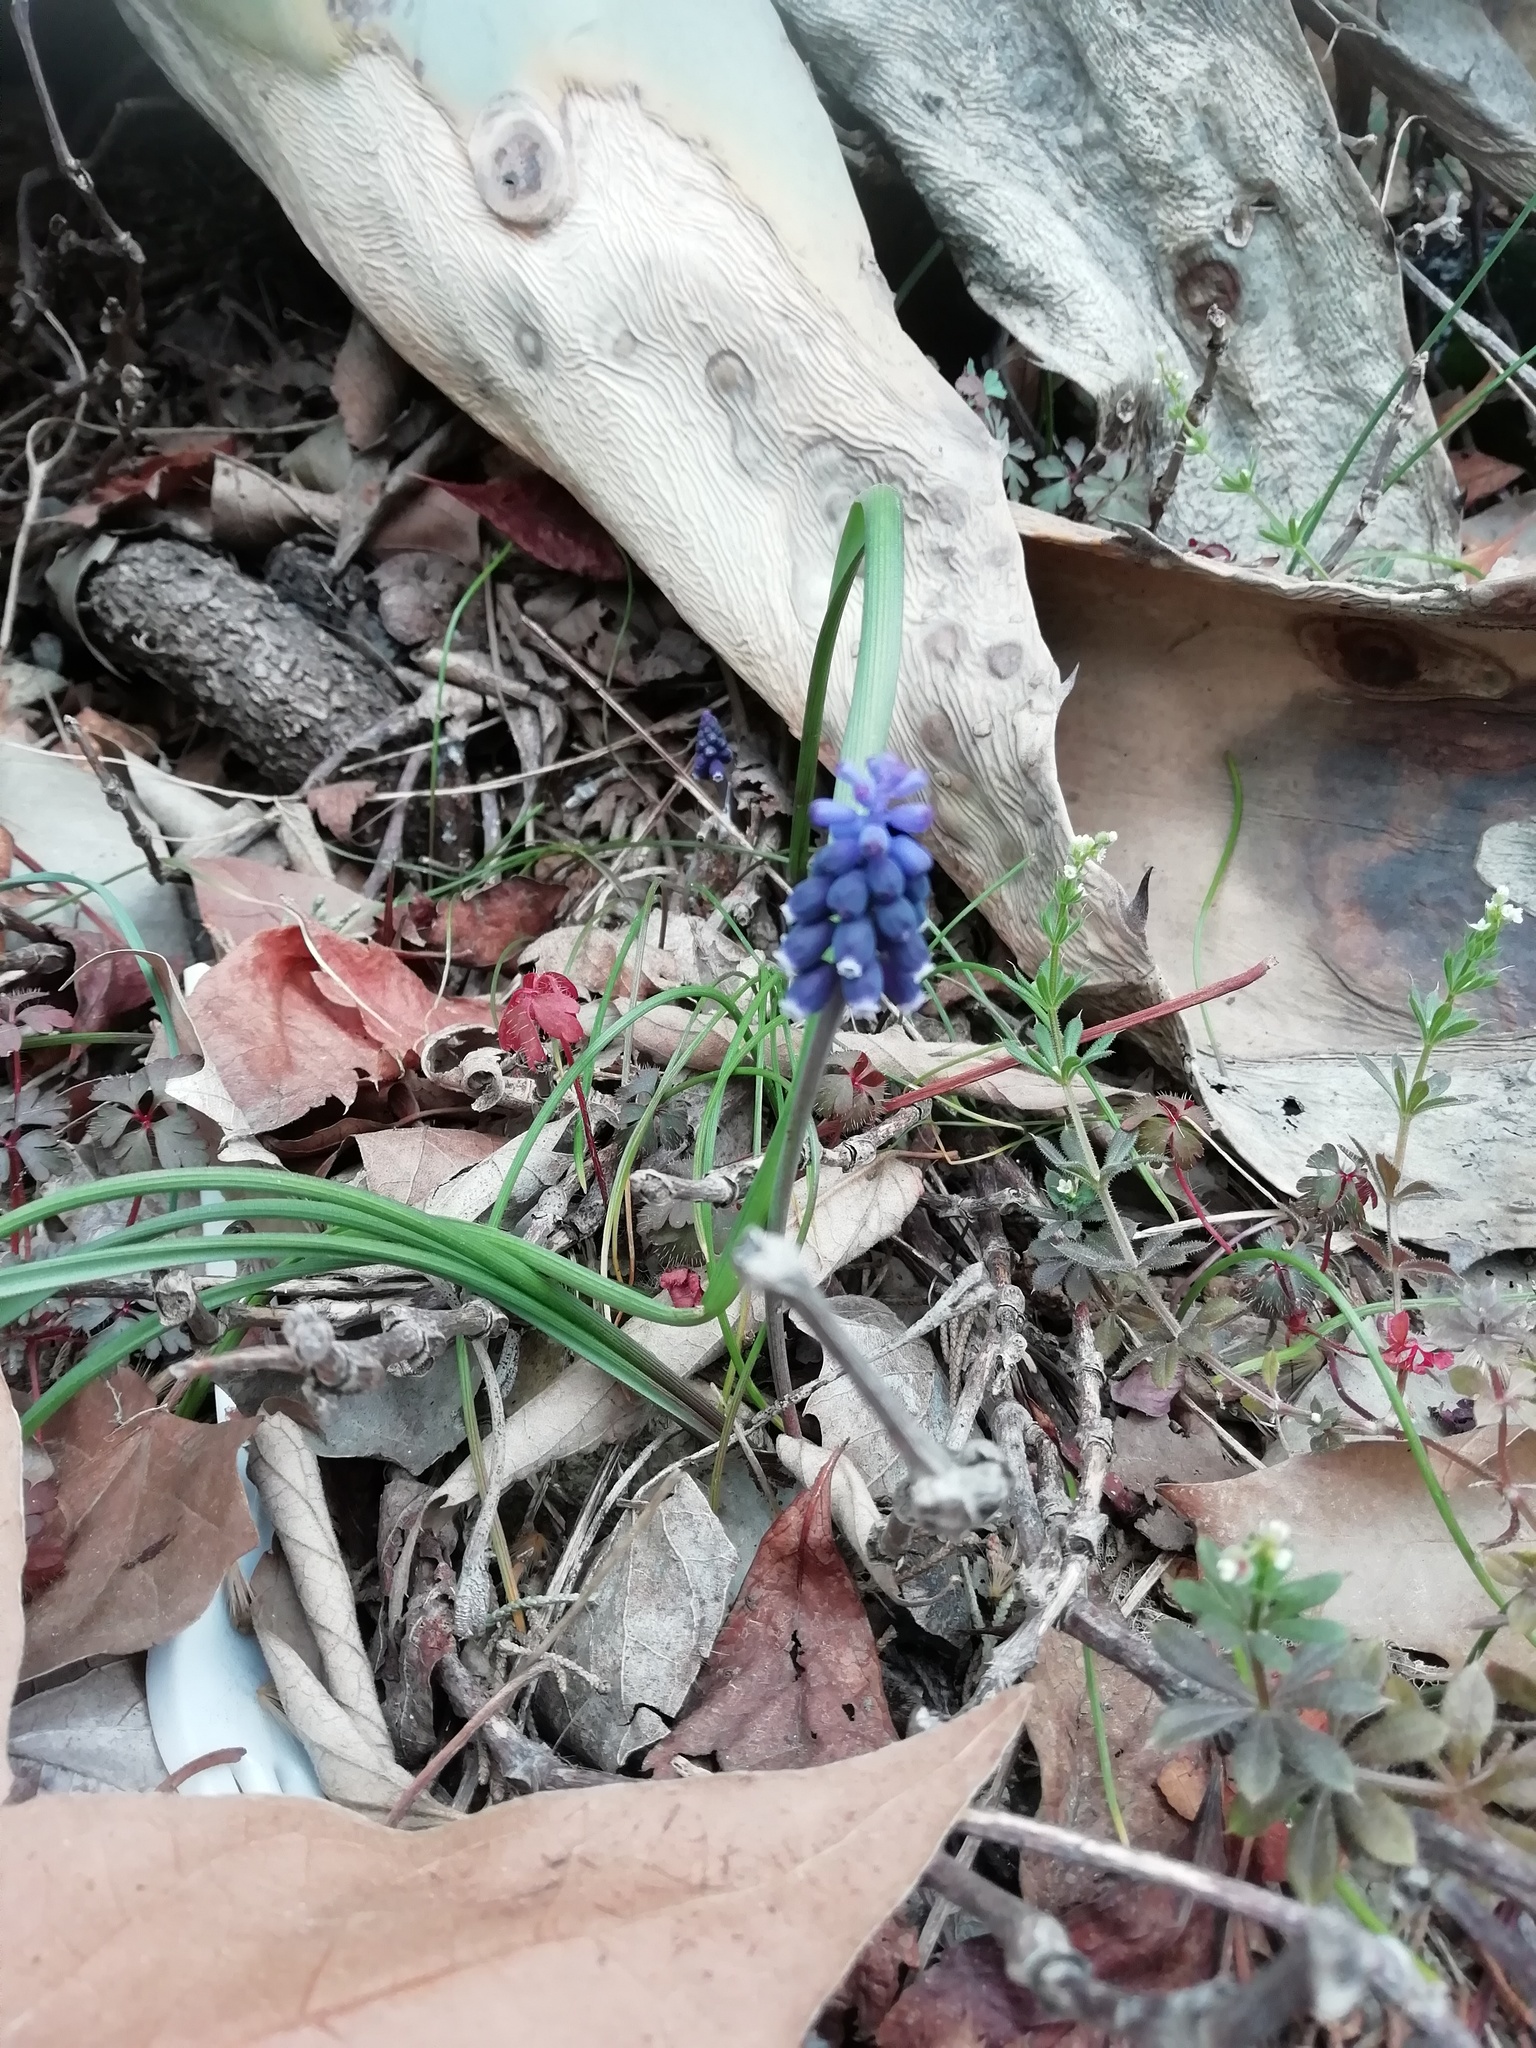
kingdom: Plantae
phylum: Tracheophyta
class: Liliopsida
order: Asparagales
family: Asparagaceae
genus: Muscari
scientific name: Muscari neglectum
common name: Grape-hyacinth
